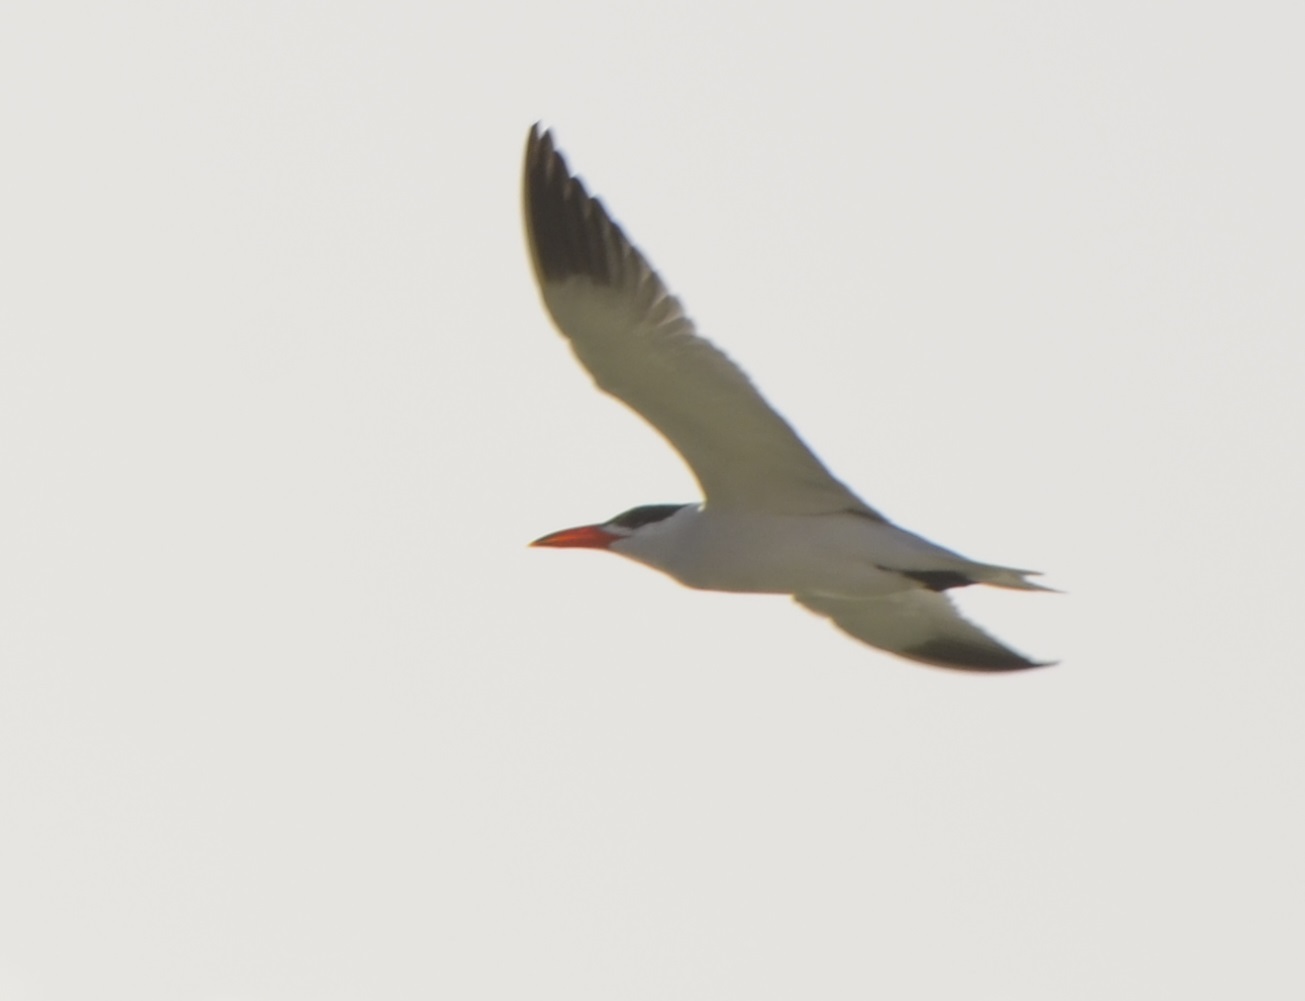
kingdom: Animalia
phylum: Chordata
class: Aves
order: Charadriiformes
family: Laridae
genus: Hydroprogne
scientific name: Hydroprogne caspia
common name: Caspian tern
